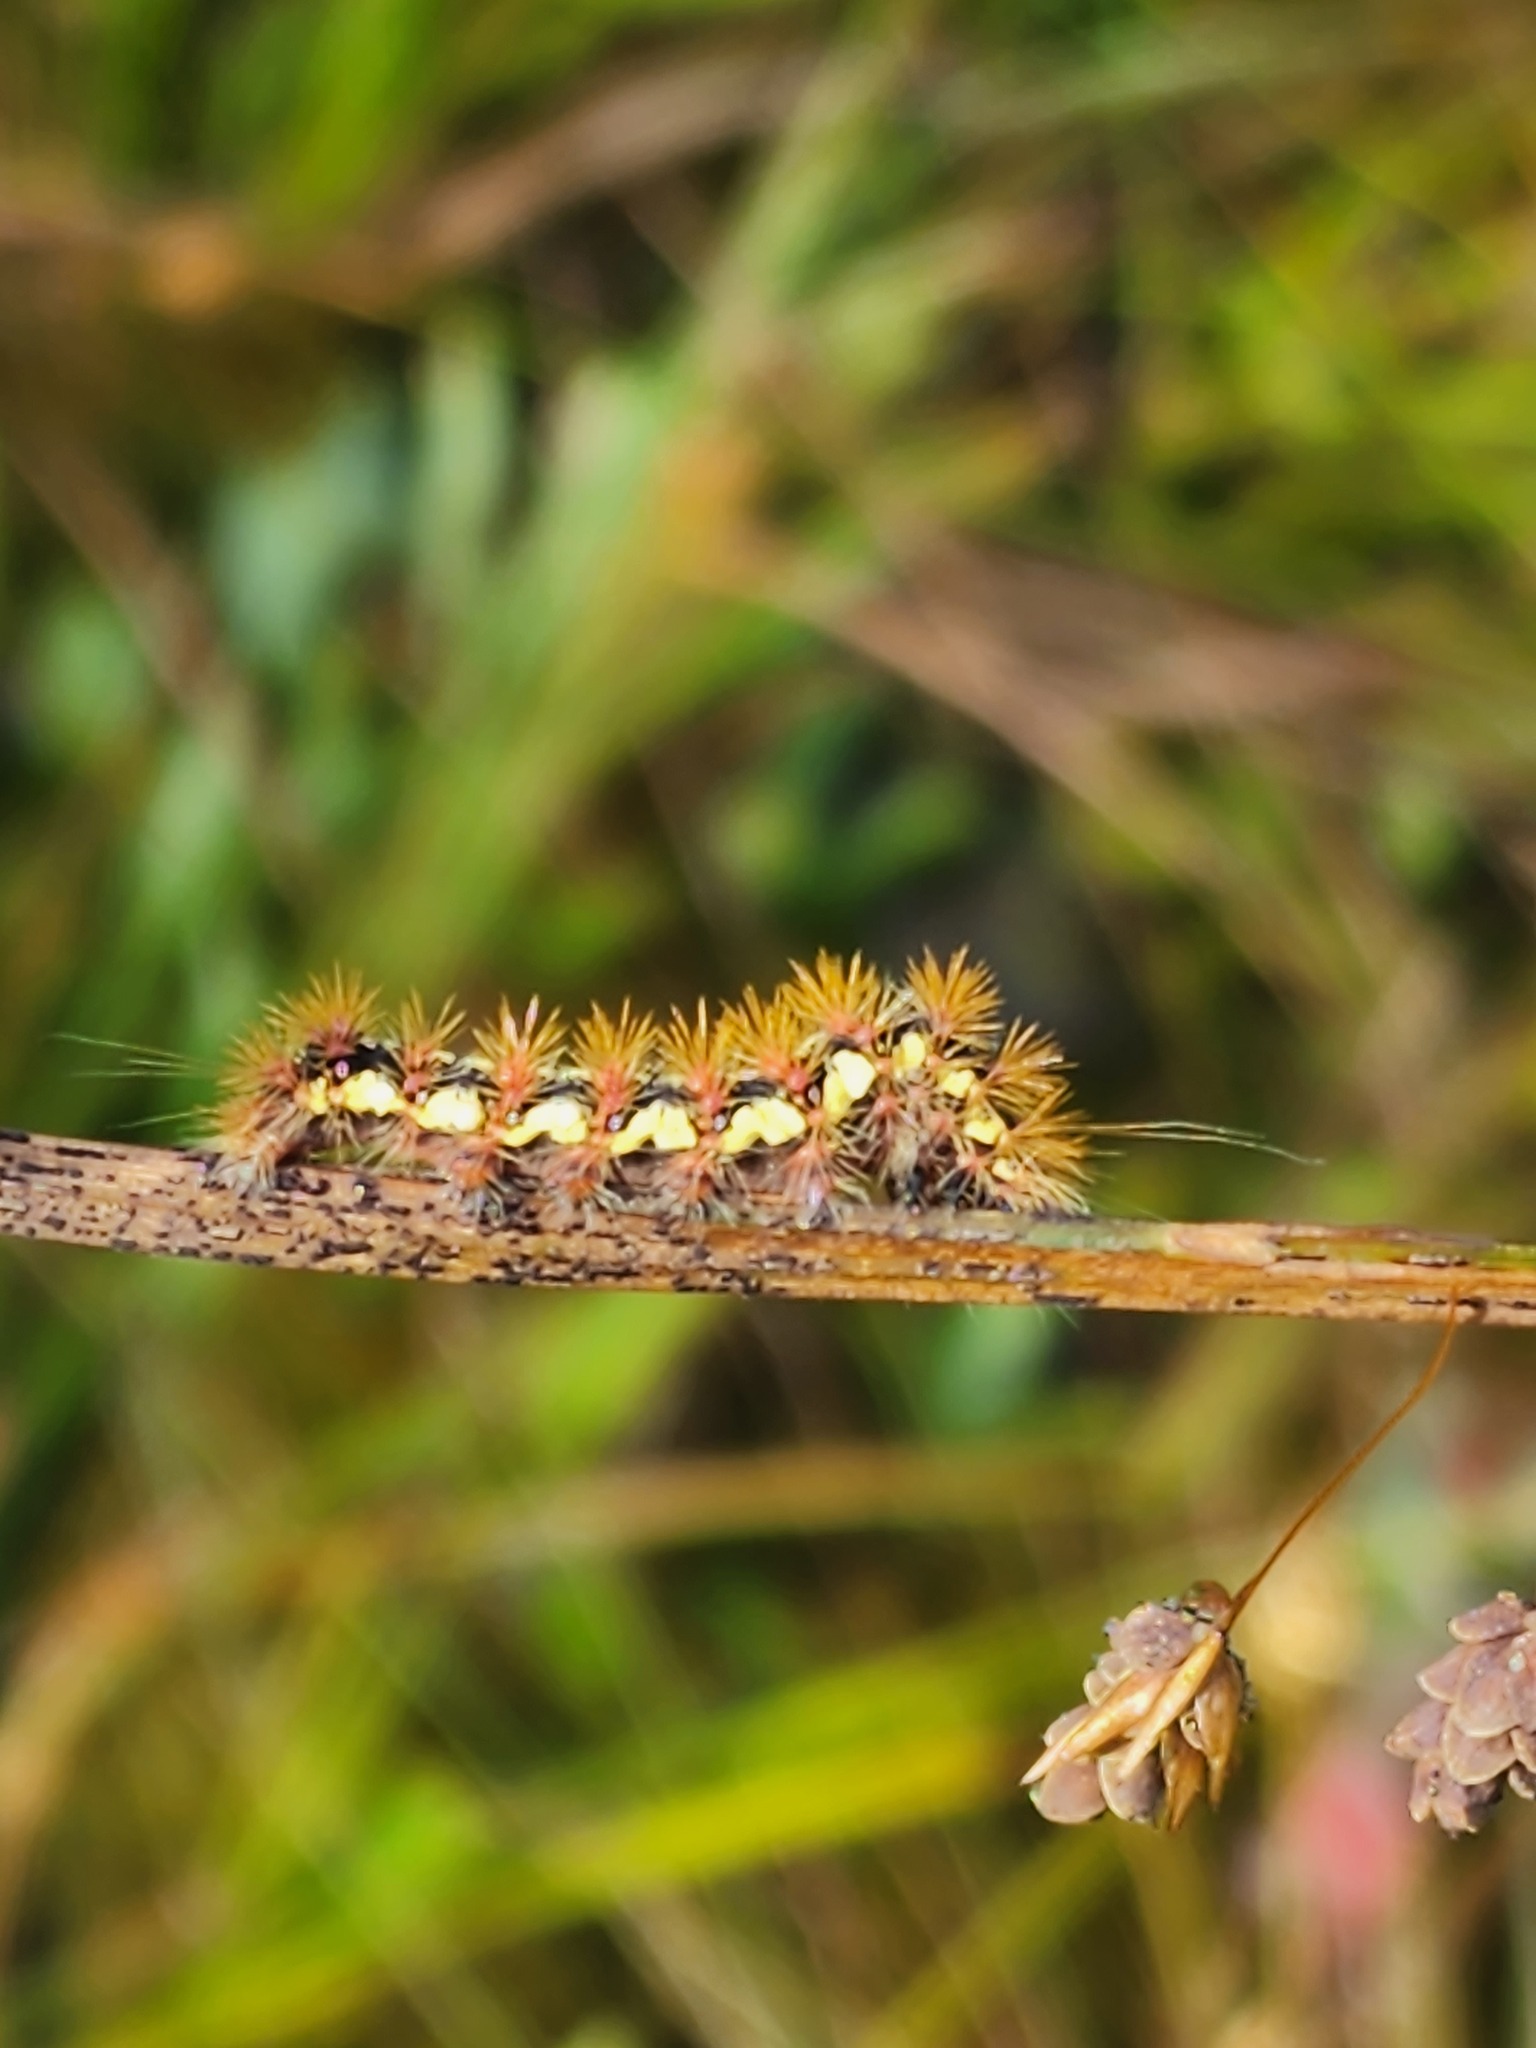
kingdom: Animalia
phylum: Arthropoda
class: Insecta
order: Lepidoptera
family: Noctuidae
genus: Acronicta
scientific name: Acronicta oblinita
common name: Smeared dagger
